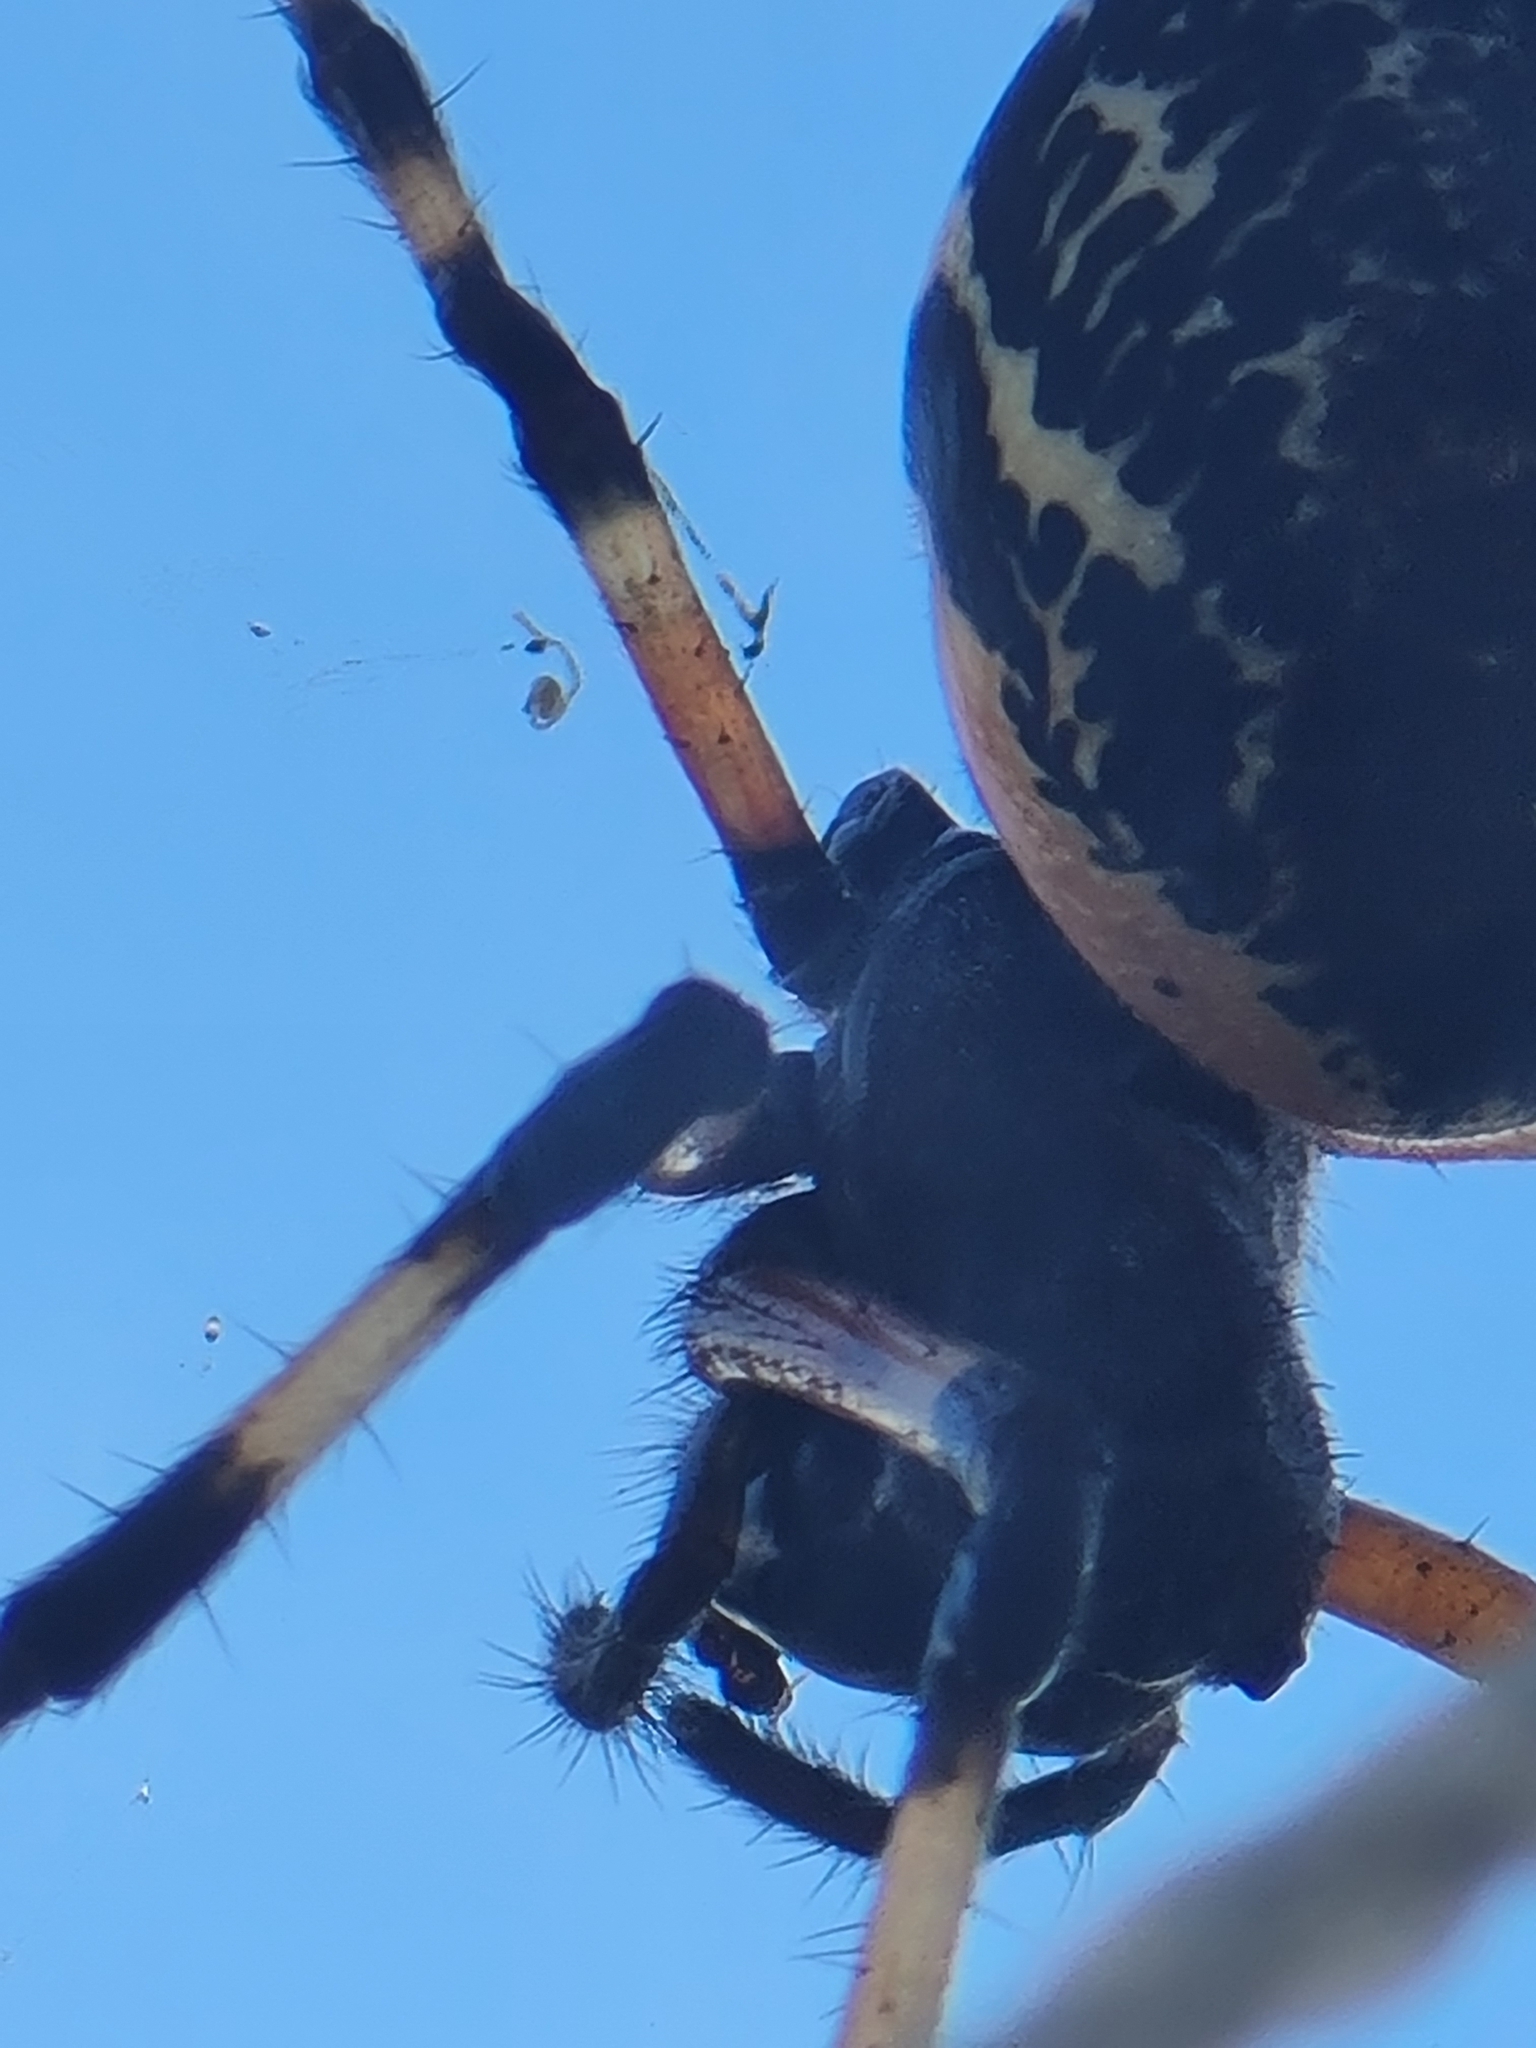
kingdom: Animalia
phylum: Arthropoda
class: Arachnida
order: Araneae
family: Araneidae
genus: Nephilingis
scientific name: Nephilingis cruentata
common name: African hermit spider
